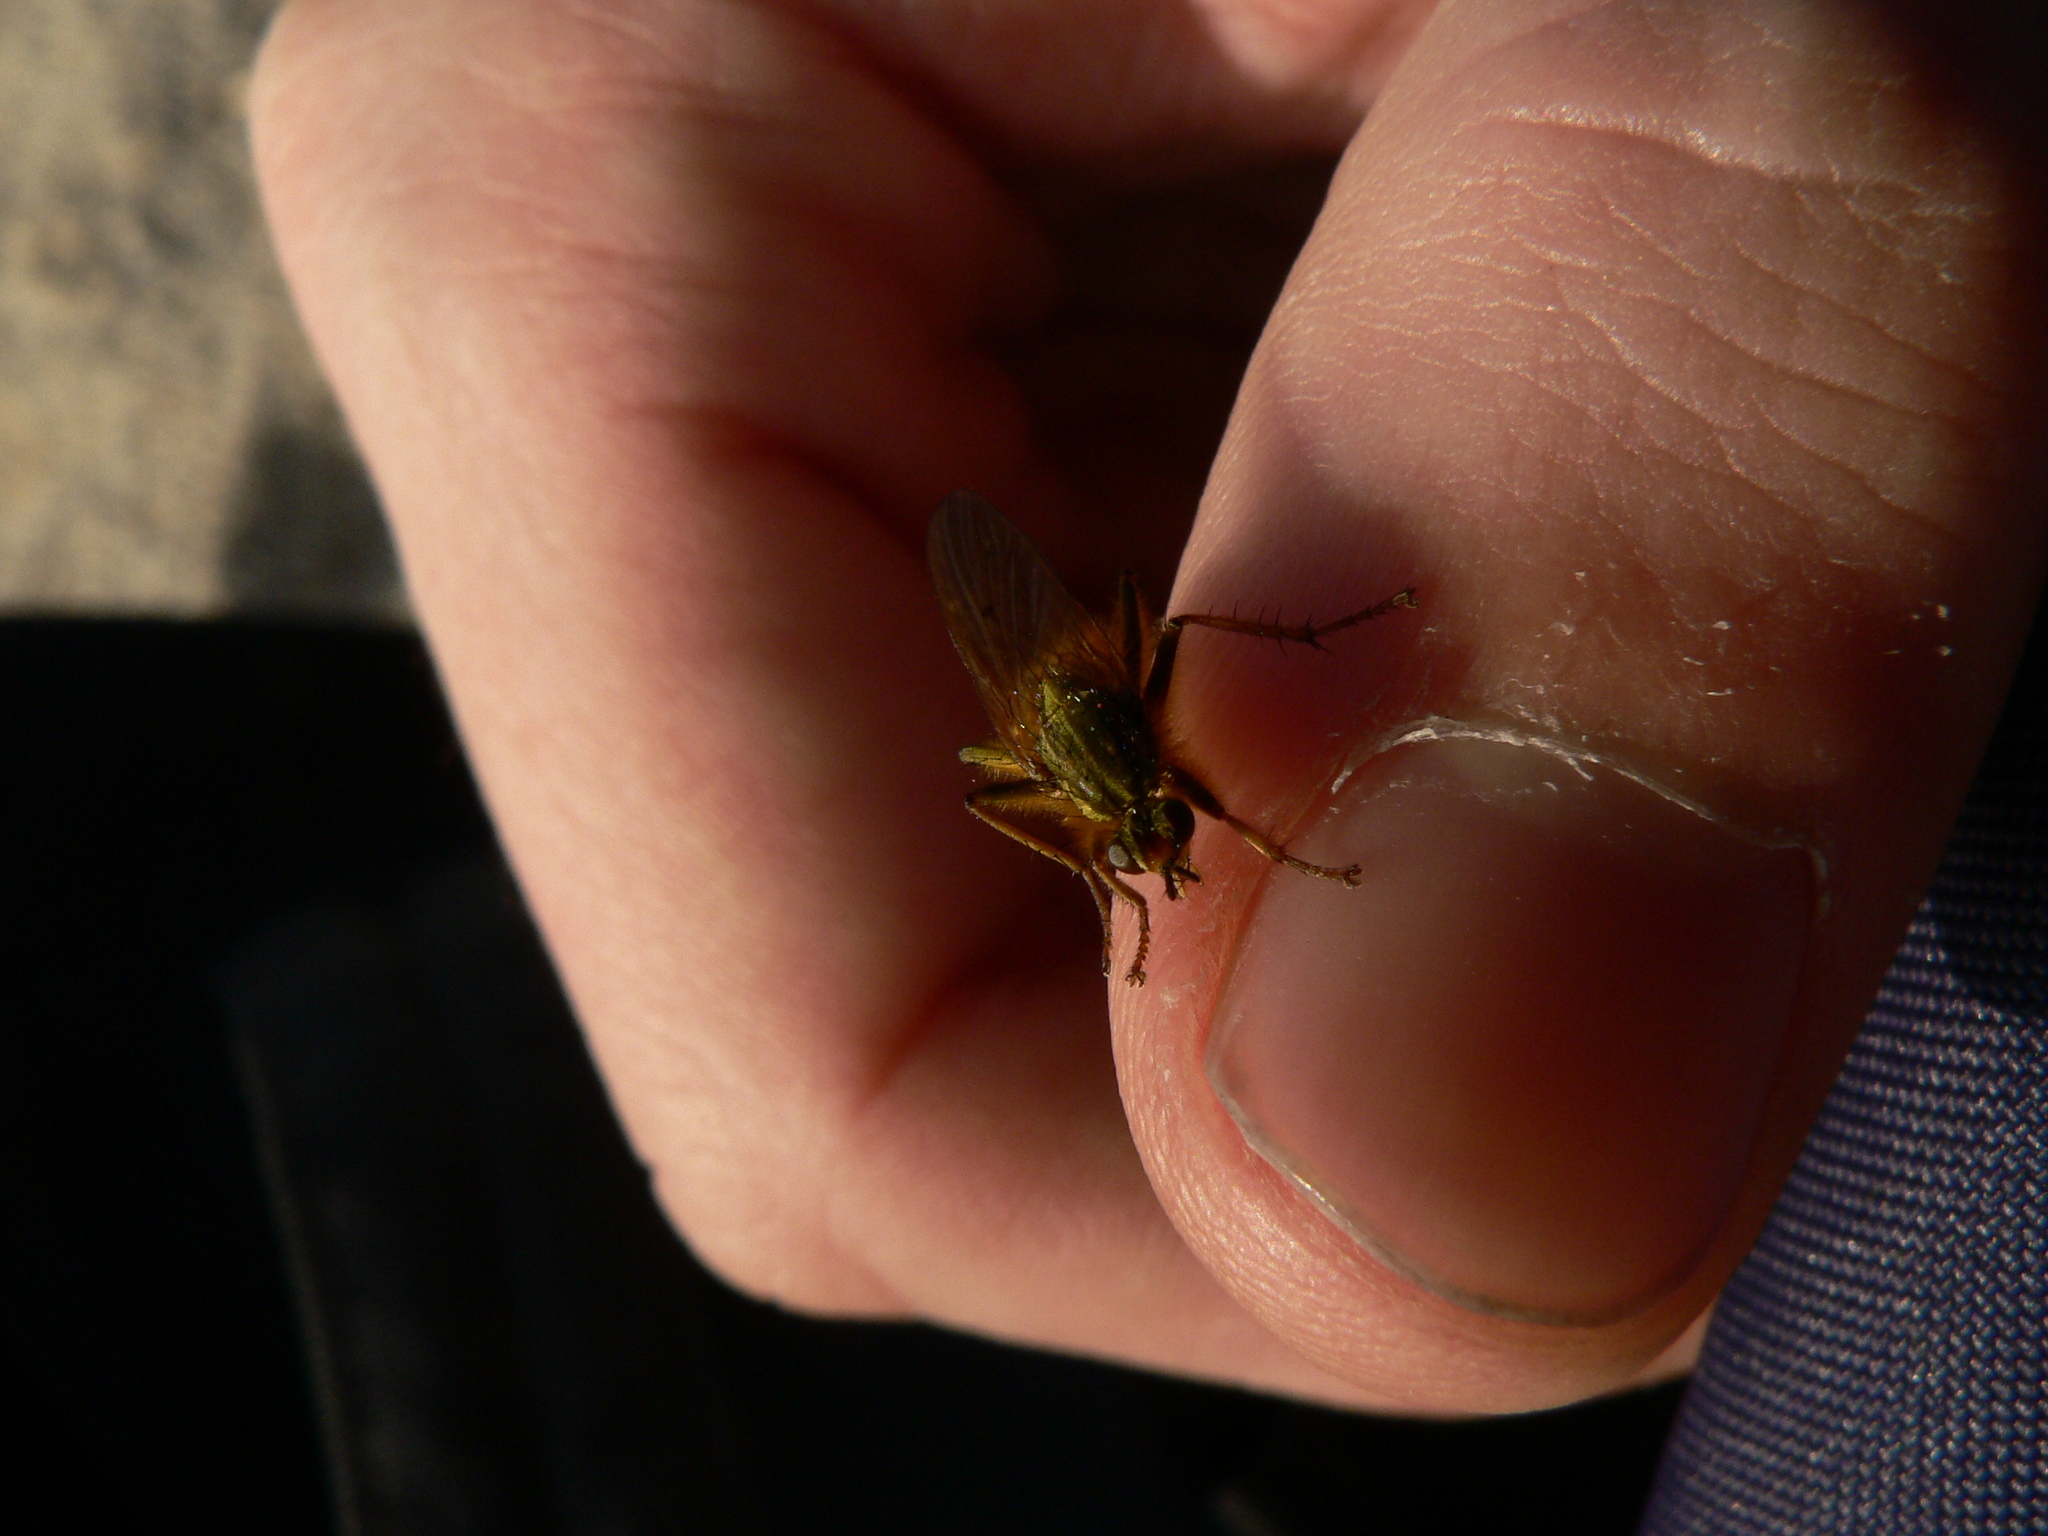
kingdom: Animalia
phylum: Arthropoda
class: Insecta
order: Diptera
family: Scathophagidae
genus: Scathophaga
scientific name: Scathophaga stercoraria
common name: Yellow dung fly
